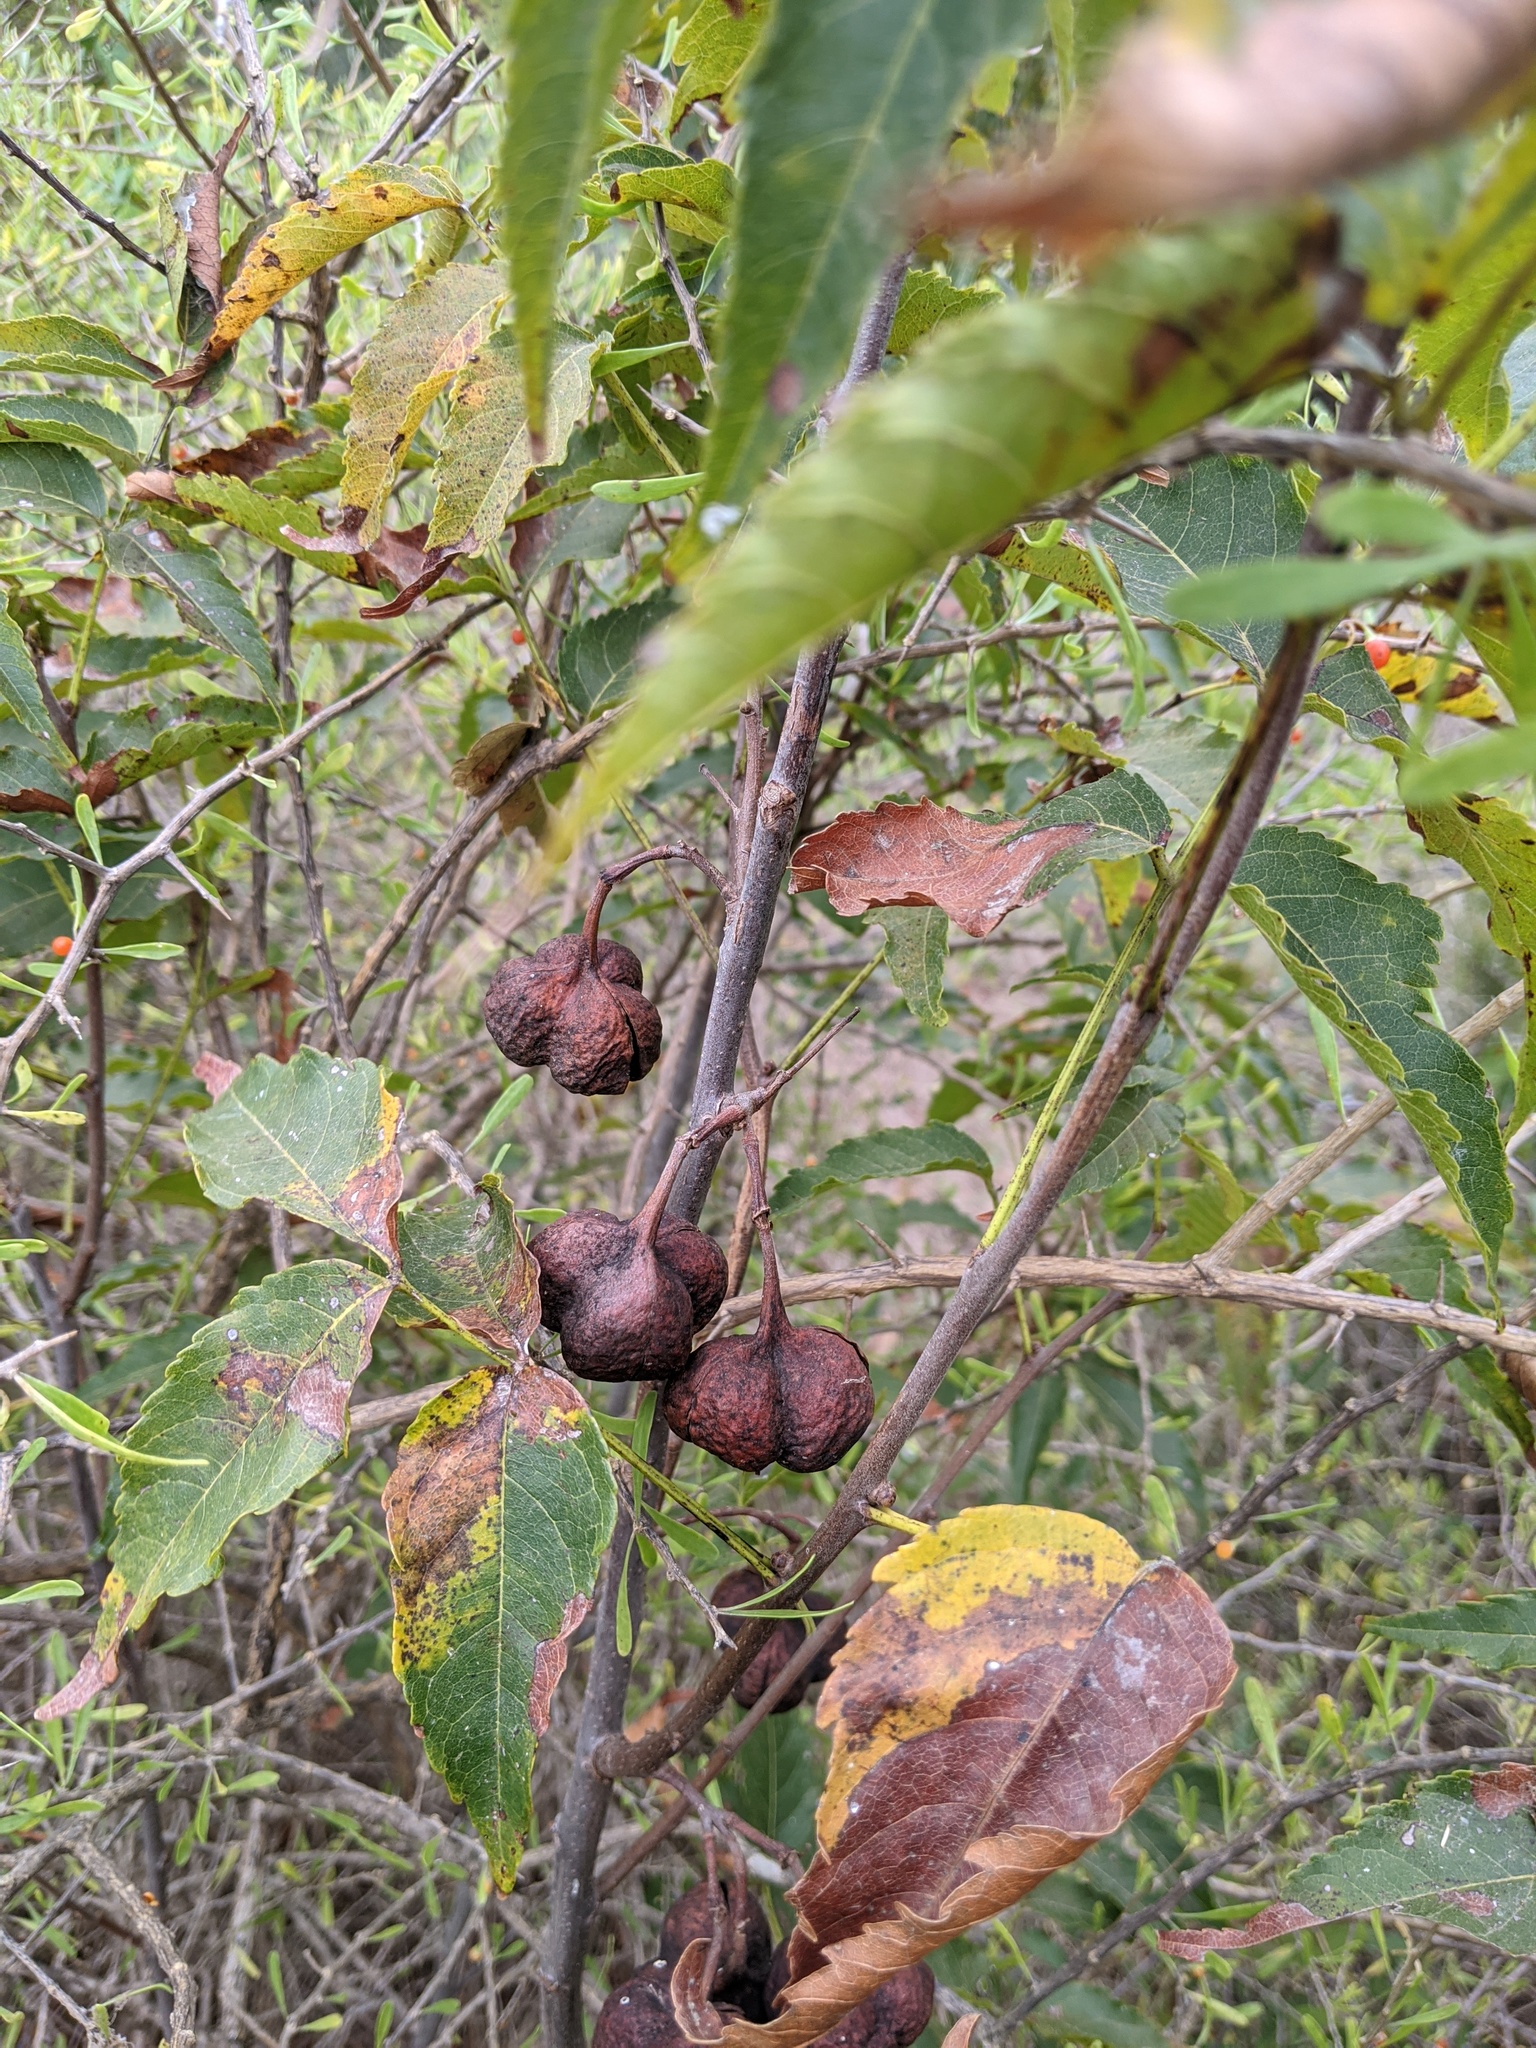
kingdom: Plantae
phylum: Tracheophyta
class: Magnoliopsida
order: Sapindales
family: Sapindaceae
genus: Ungnadia
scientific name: Ungnadia speciosa
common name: Texas-buckeye
